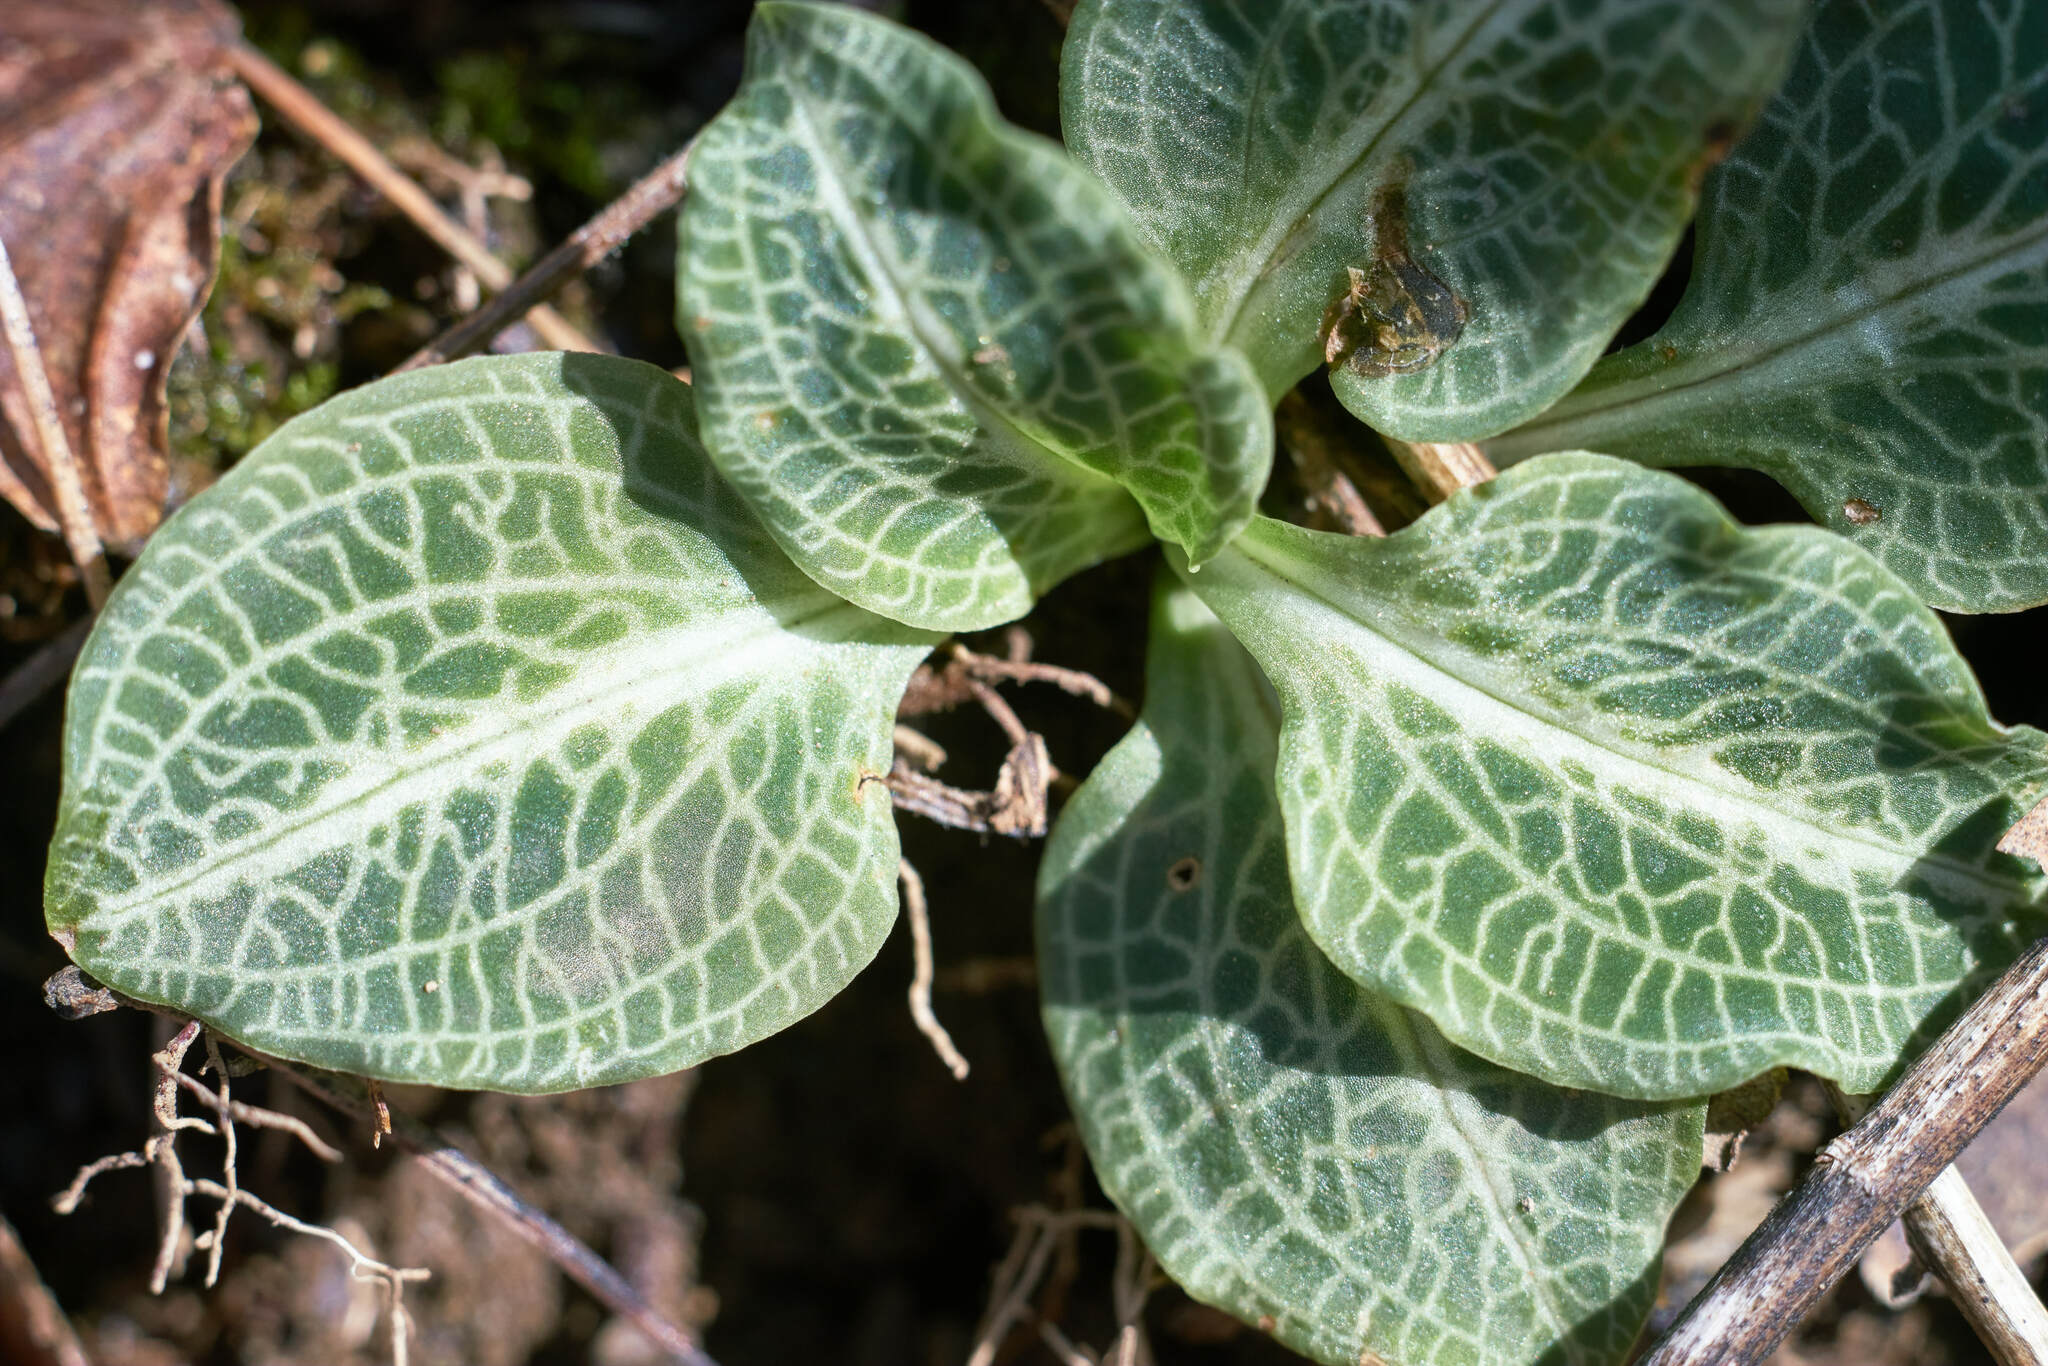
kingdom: Plantae
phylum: Tracheophyta
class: Liliopsida
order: Asparagales
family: Orchidaceae
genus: Goodyera
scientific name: Goodyera pubescens
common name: Downy rattlesnake-plantain
